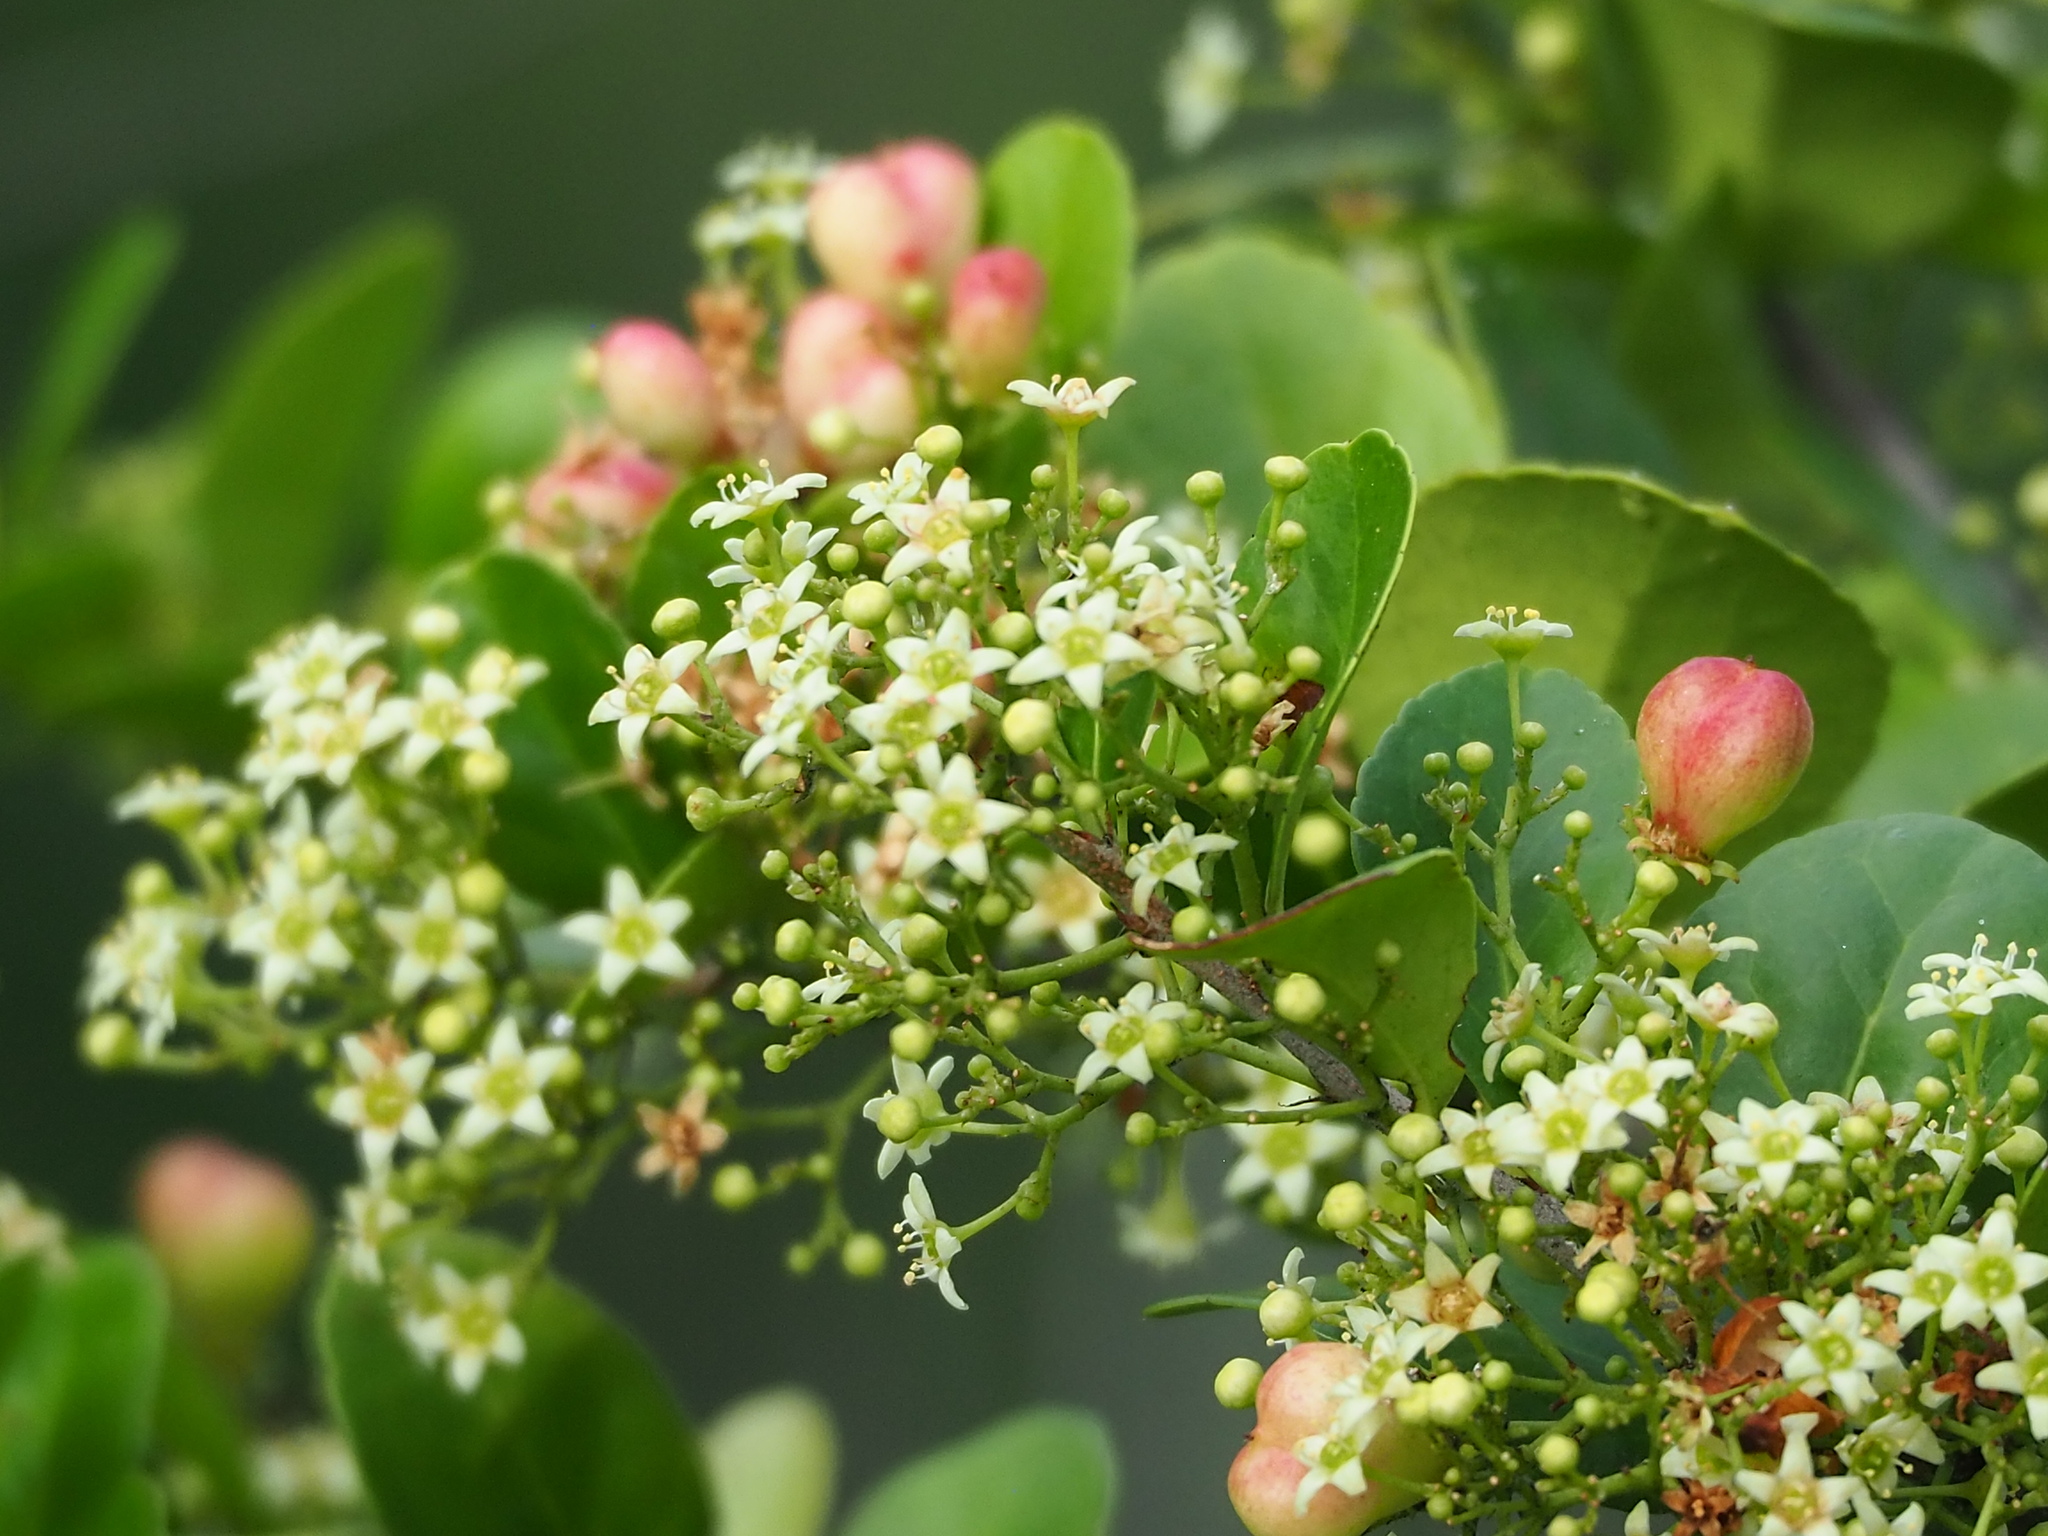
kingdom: Plantae
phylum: Tracheophyta
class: Magnoliopsida
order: Celastrales
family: Celastraceae
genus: Gymnosporia
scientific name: Gymnosporia diversifolia
